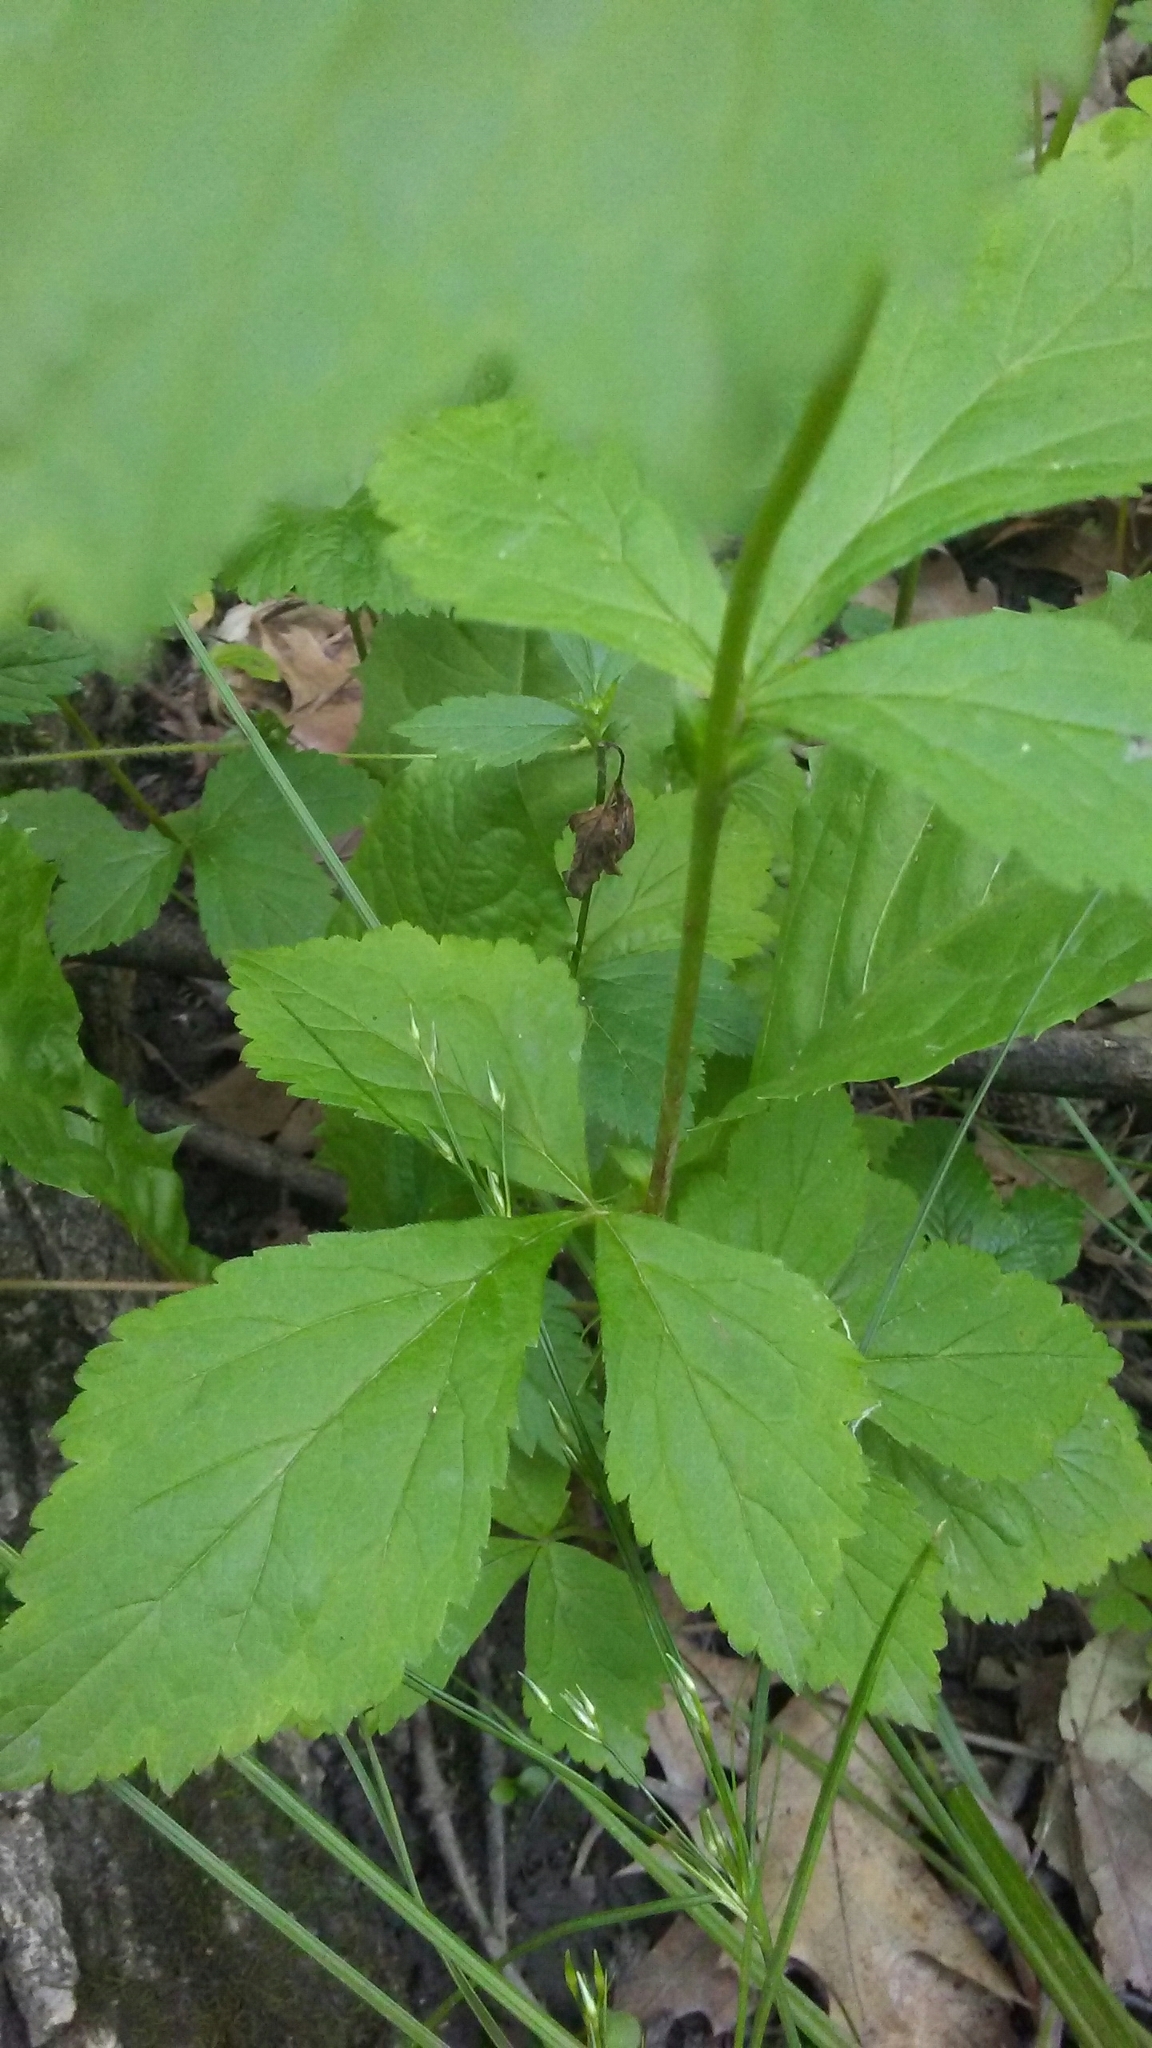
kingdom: Plantae
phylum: Tracheophyta
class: Magnoliopsida
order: Rosales
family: Rosaceae
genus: Geum
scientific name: Geum canadense
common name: White avens
